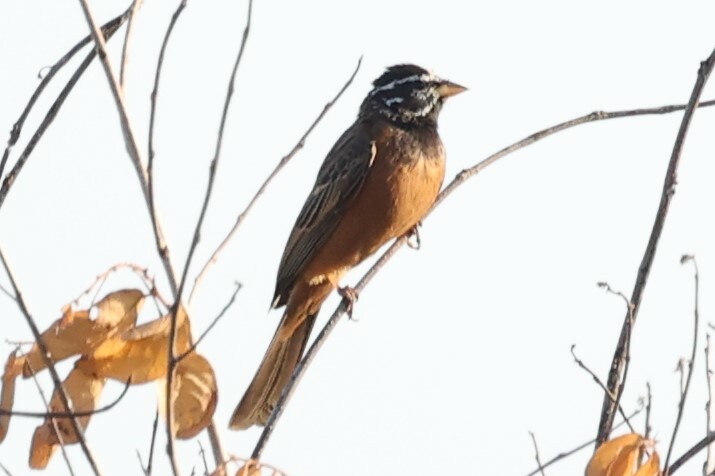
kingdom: Animalia
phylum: Chordata
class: Aves
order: Passeriformes
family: Emberizidae
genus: Emberiza
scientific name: Emberiza tahapisi
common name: Cinnamon-breasted bunting
